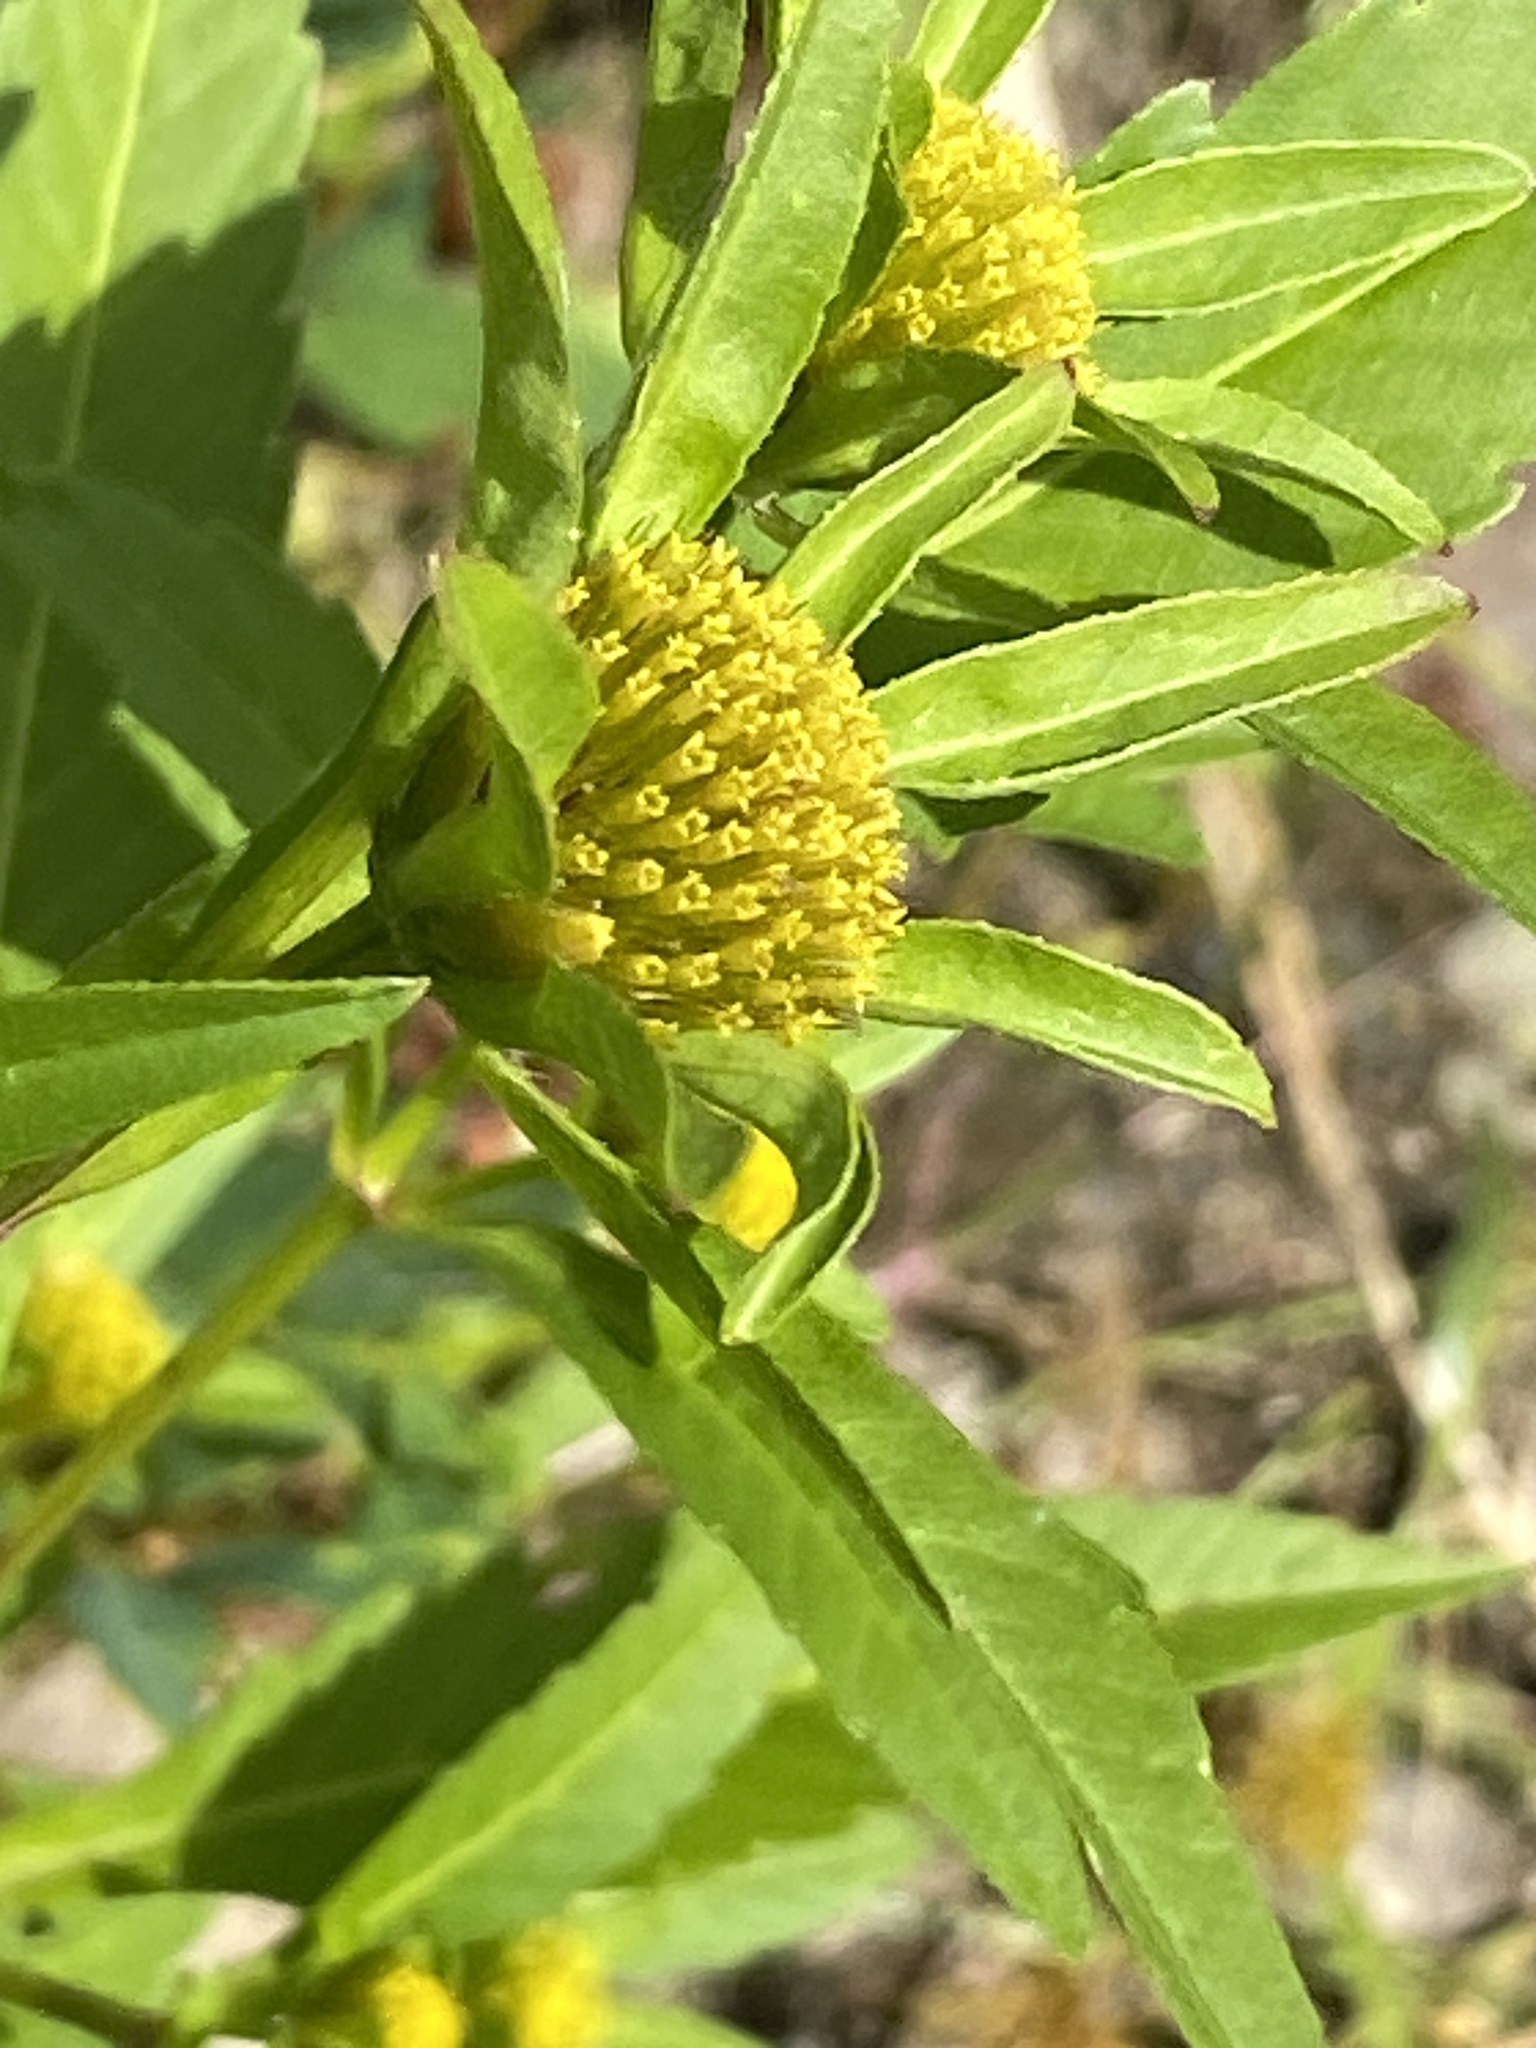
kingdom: Plantae
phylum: Tracheophyta
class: Magnoliopsida
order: Asterales
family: Asteraceae
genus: Bidens
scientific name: Bidens tripartita
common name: Trifid bur-marigold
